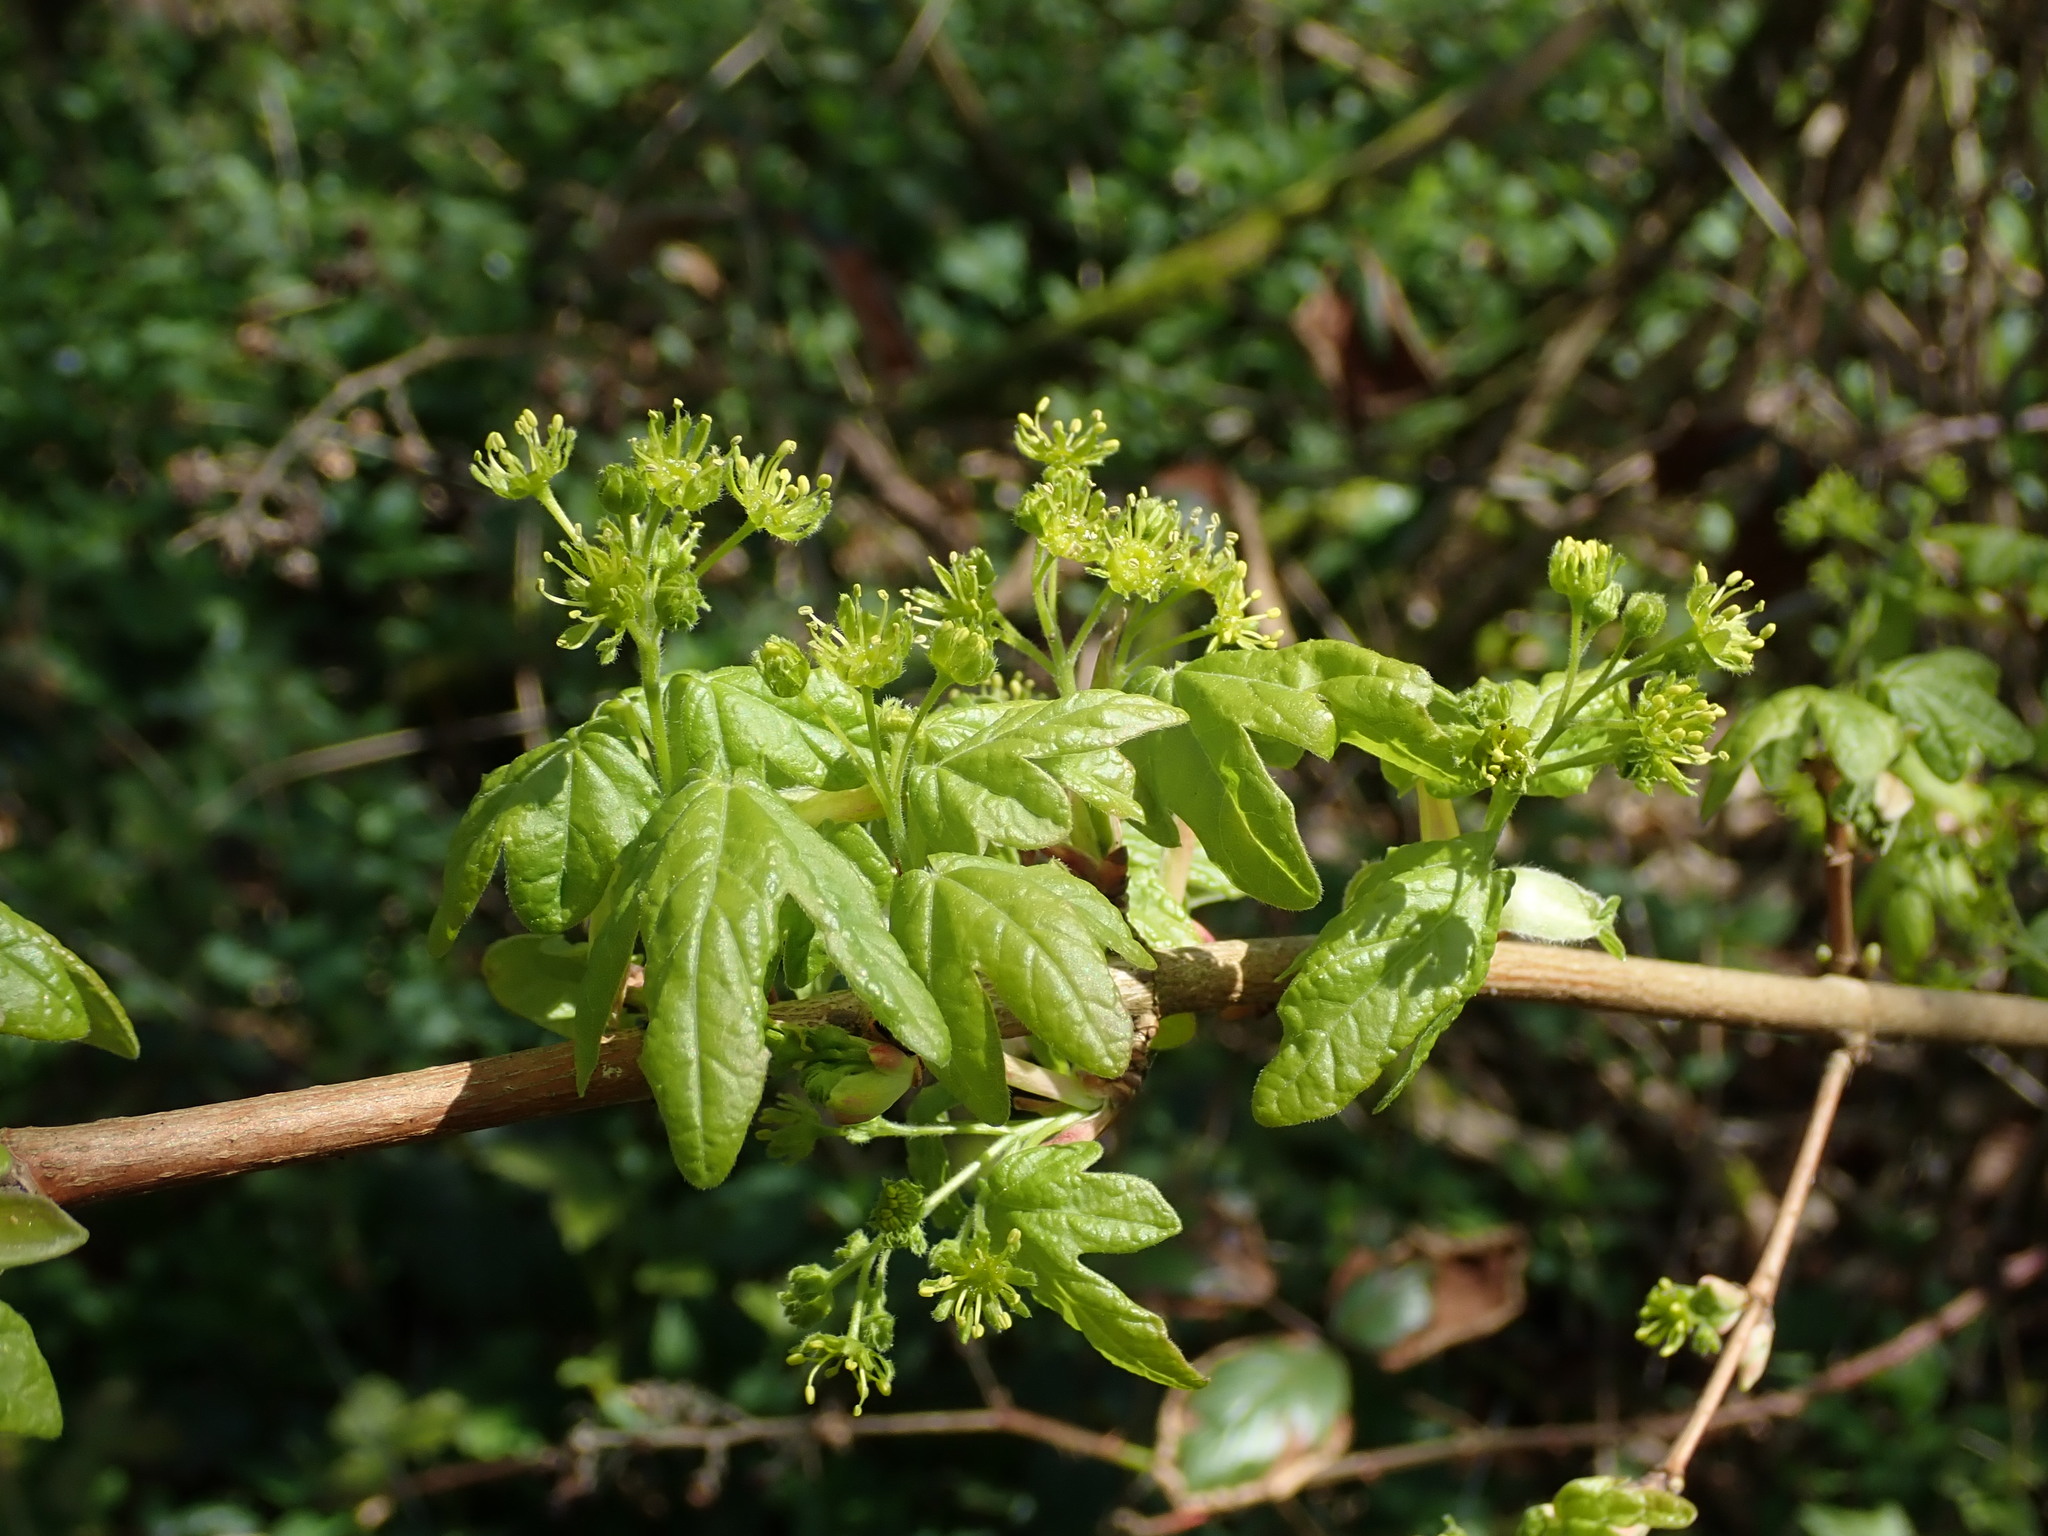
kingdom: Plantae
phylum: Tracheophyta
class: Magnoliopsida
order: Sapindales
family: Sapindaceae
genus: Acer
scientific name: Acer campestre
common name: Field maple
